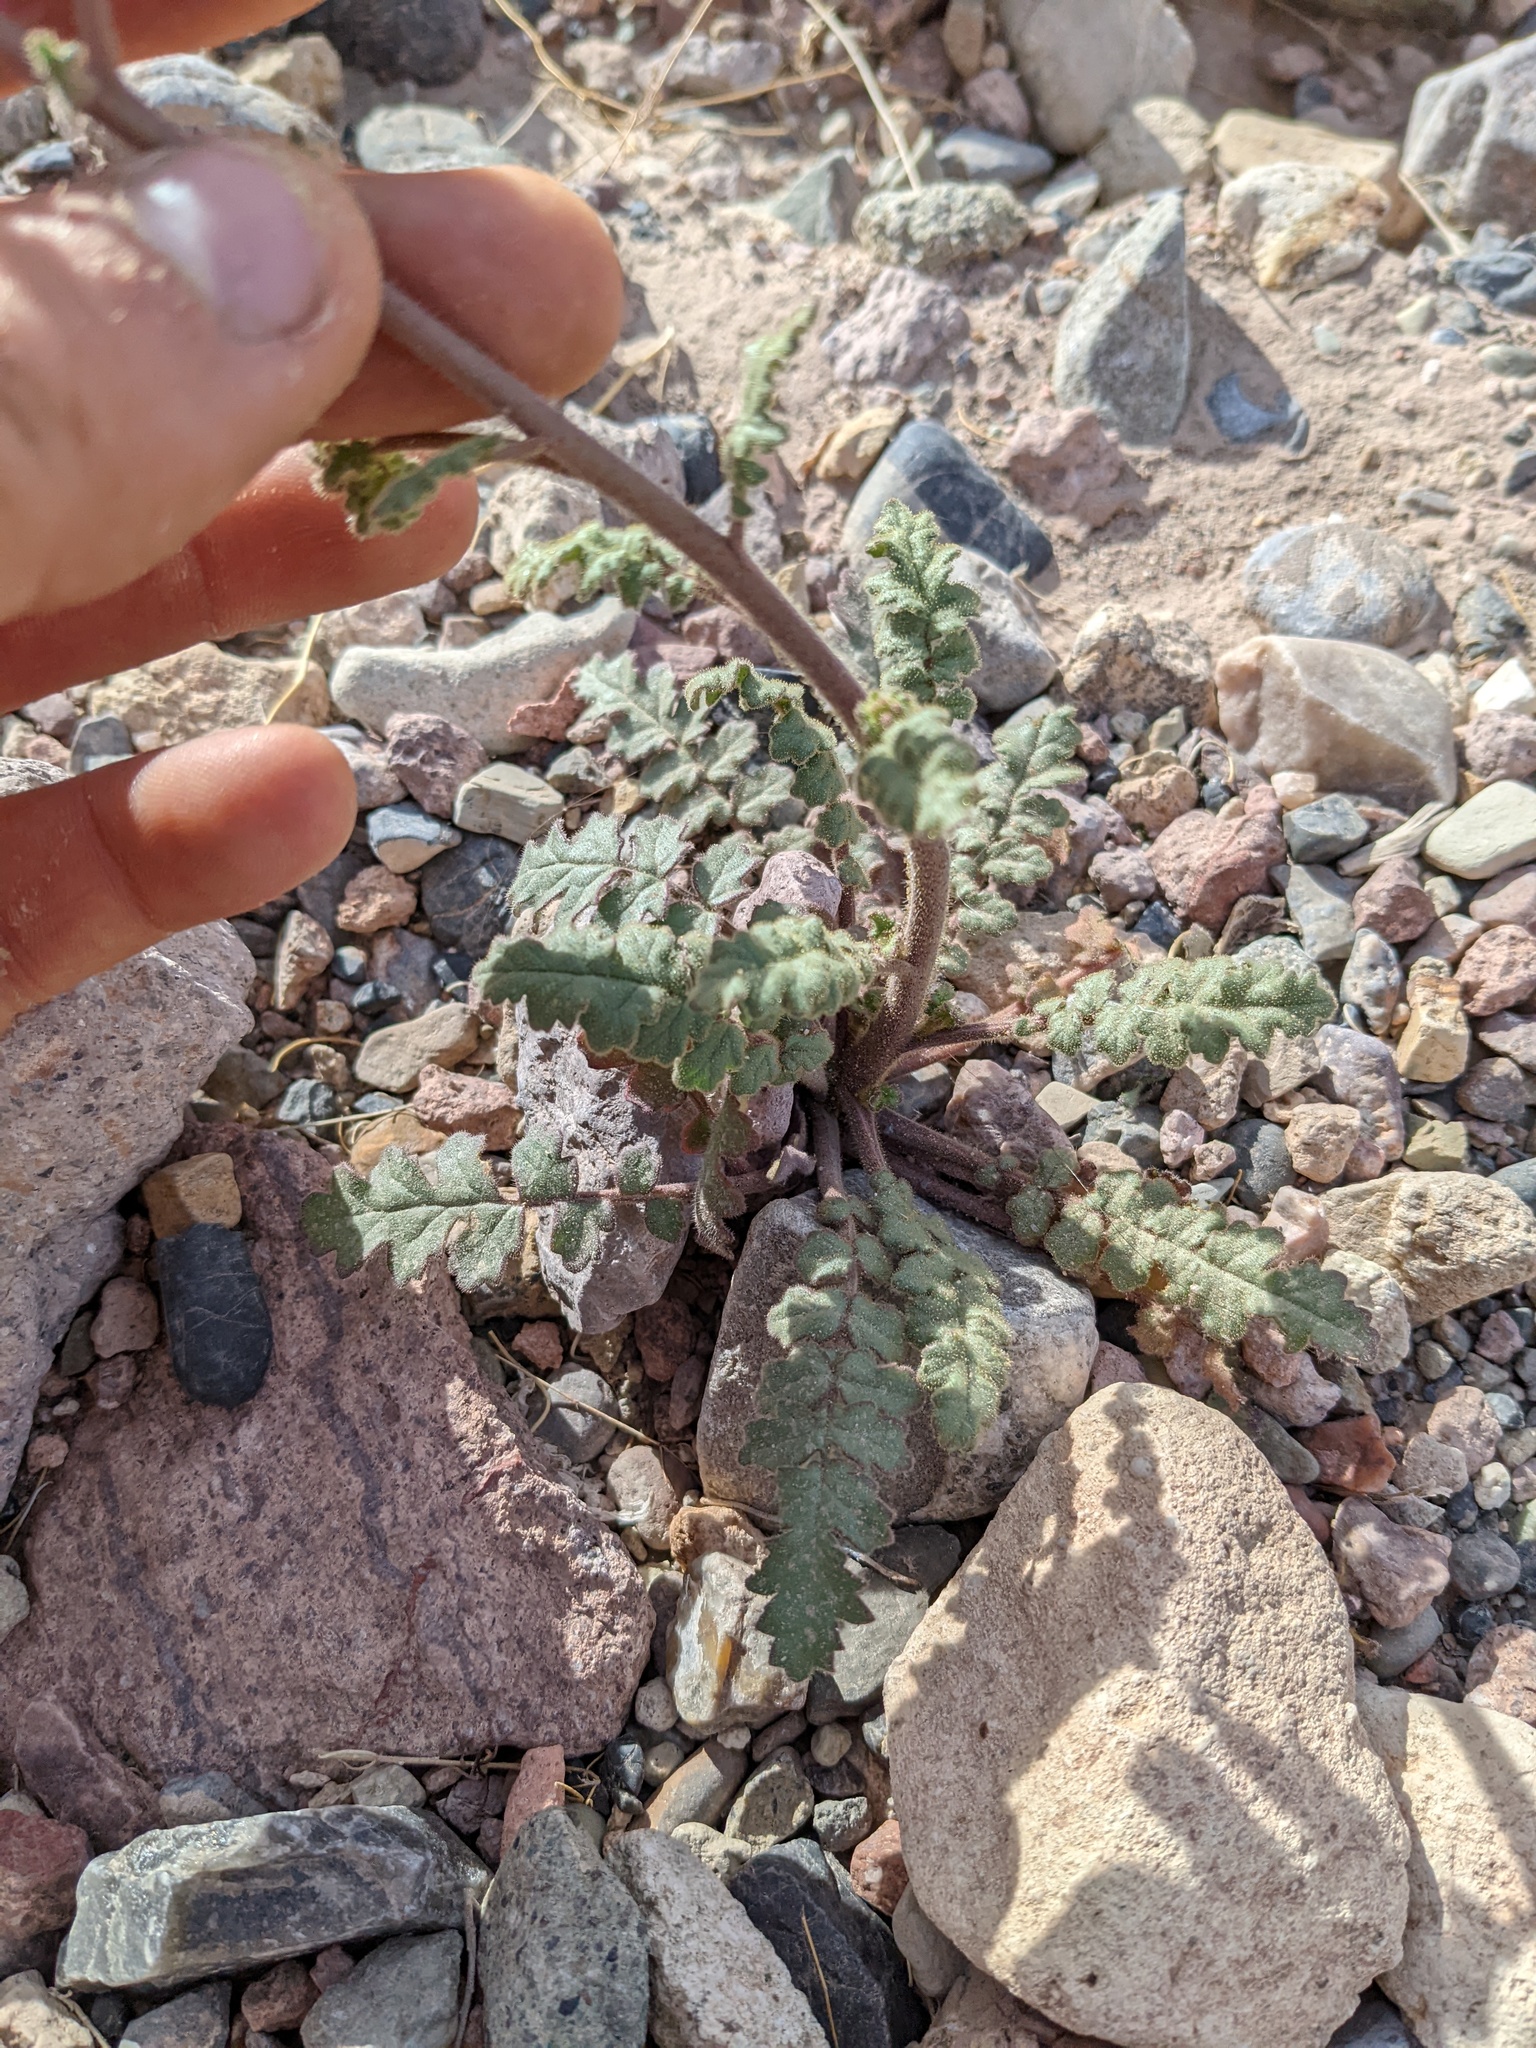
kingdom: Plantae
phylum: Tracheophyta
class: Magnoliopsida
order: Boraginales
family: Hydrophyllaceae
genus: Phacelia
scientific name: Phacelia crenulata
